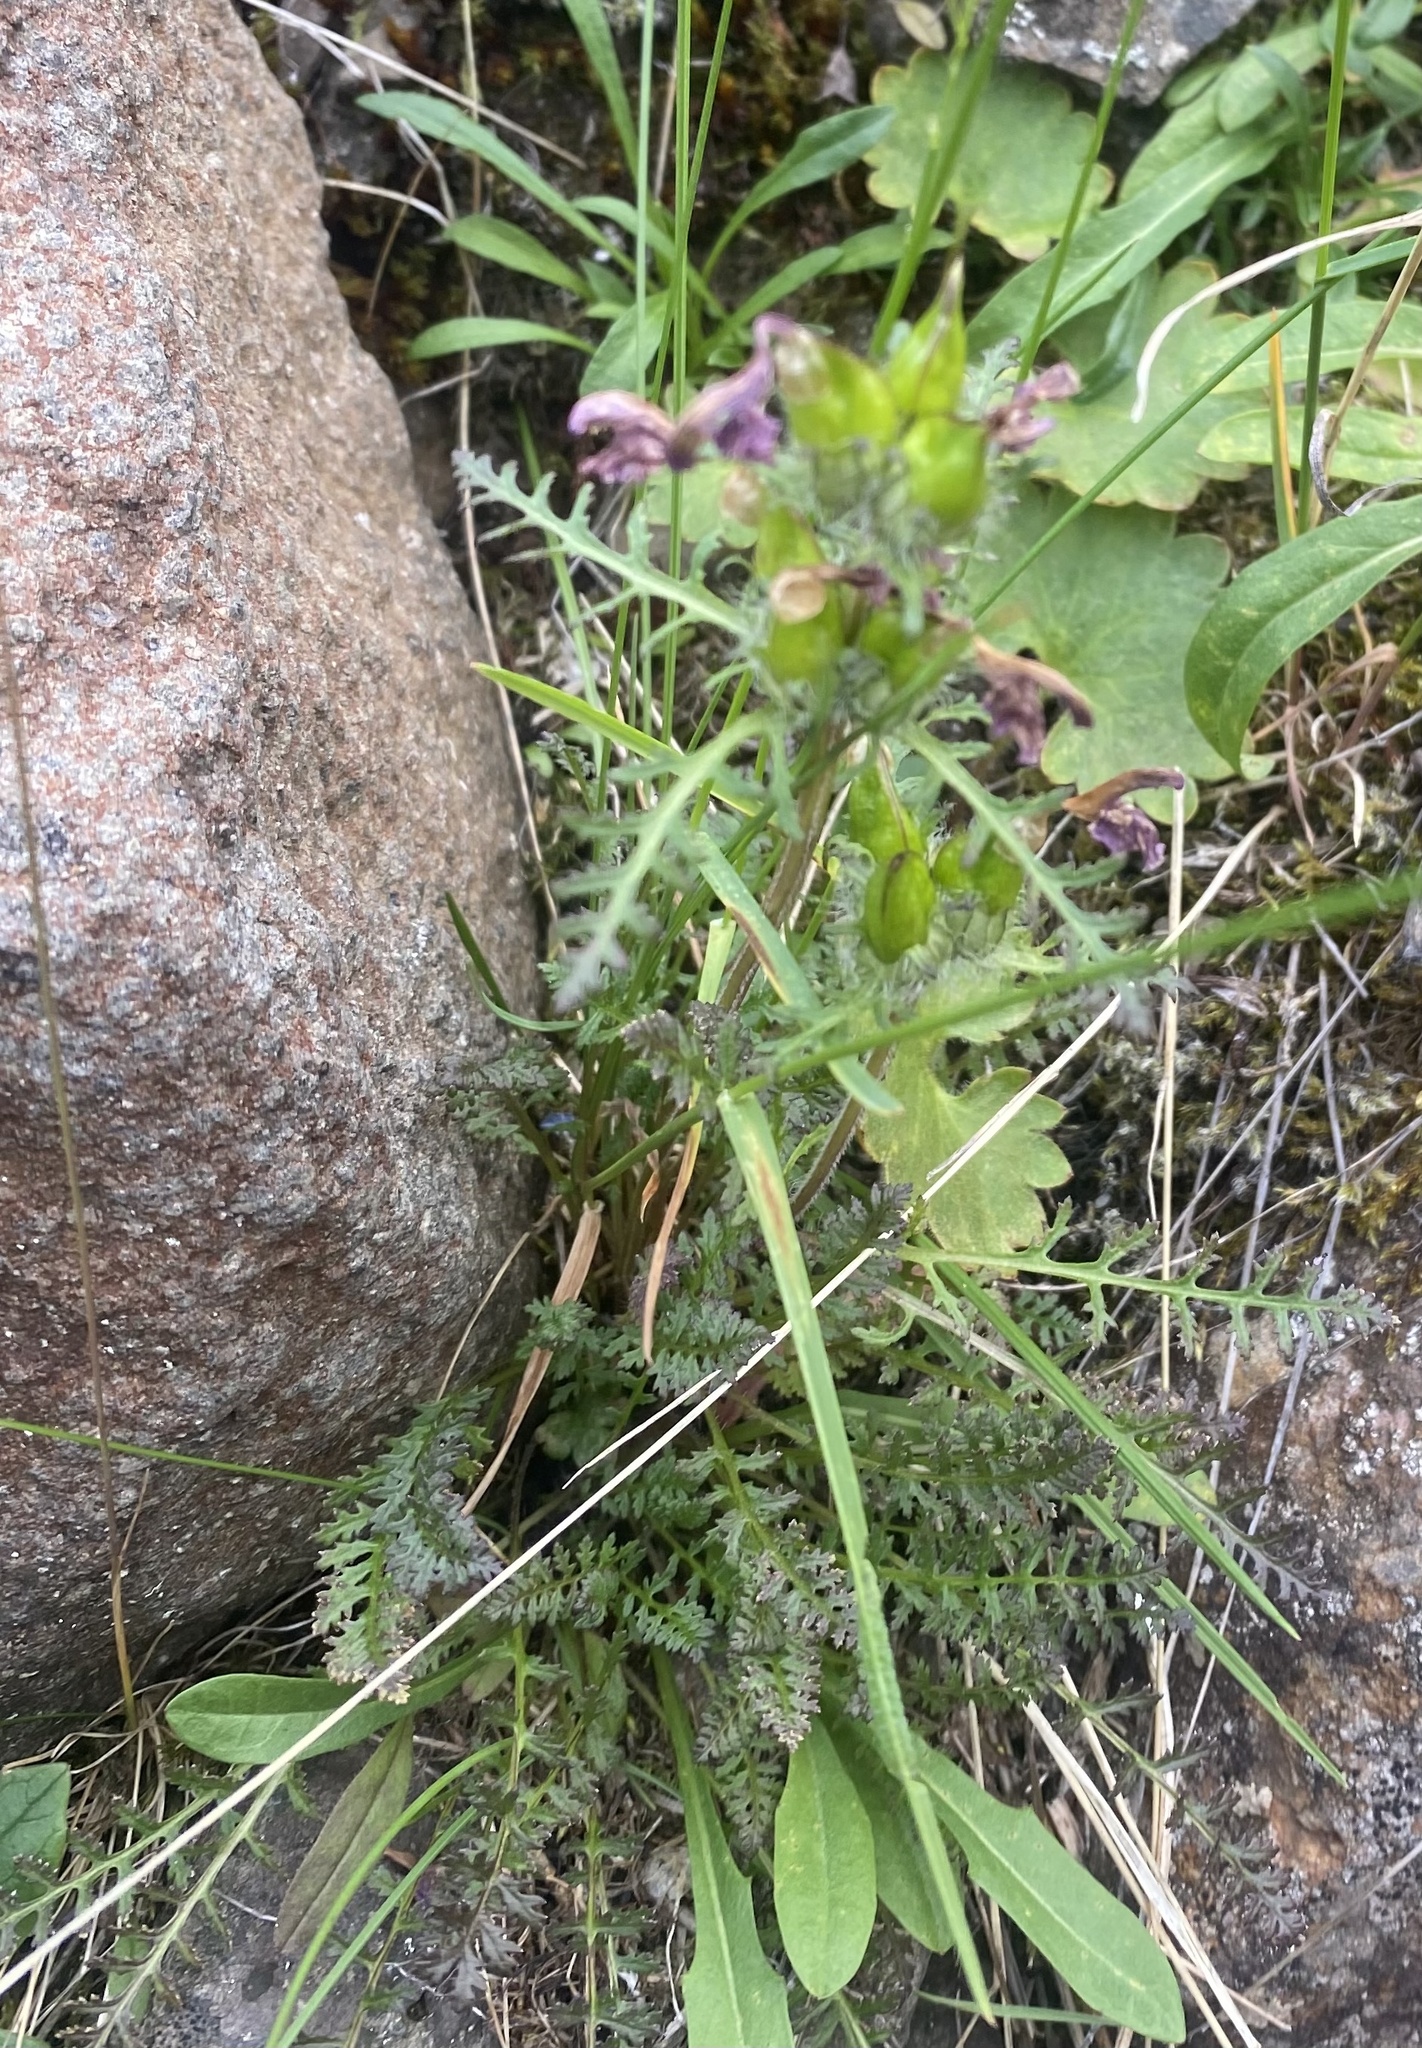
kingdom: Plantae
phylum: Tracheophyta
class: Magnoliopsida
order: Lamiales
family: Orobanchaceae
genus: Pedicularis
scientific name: Pedicularis amoena
